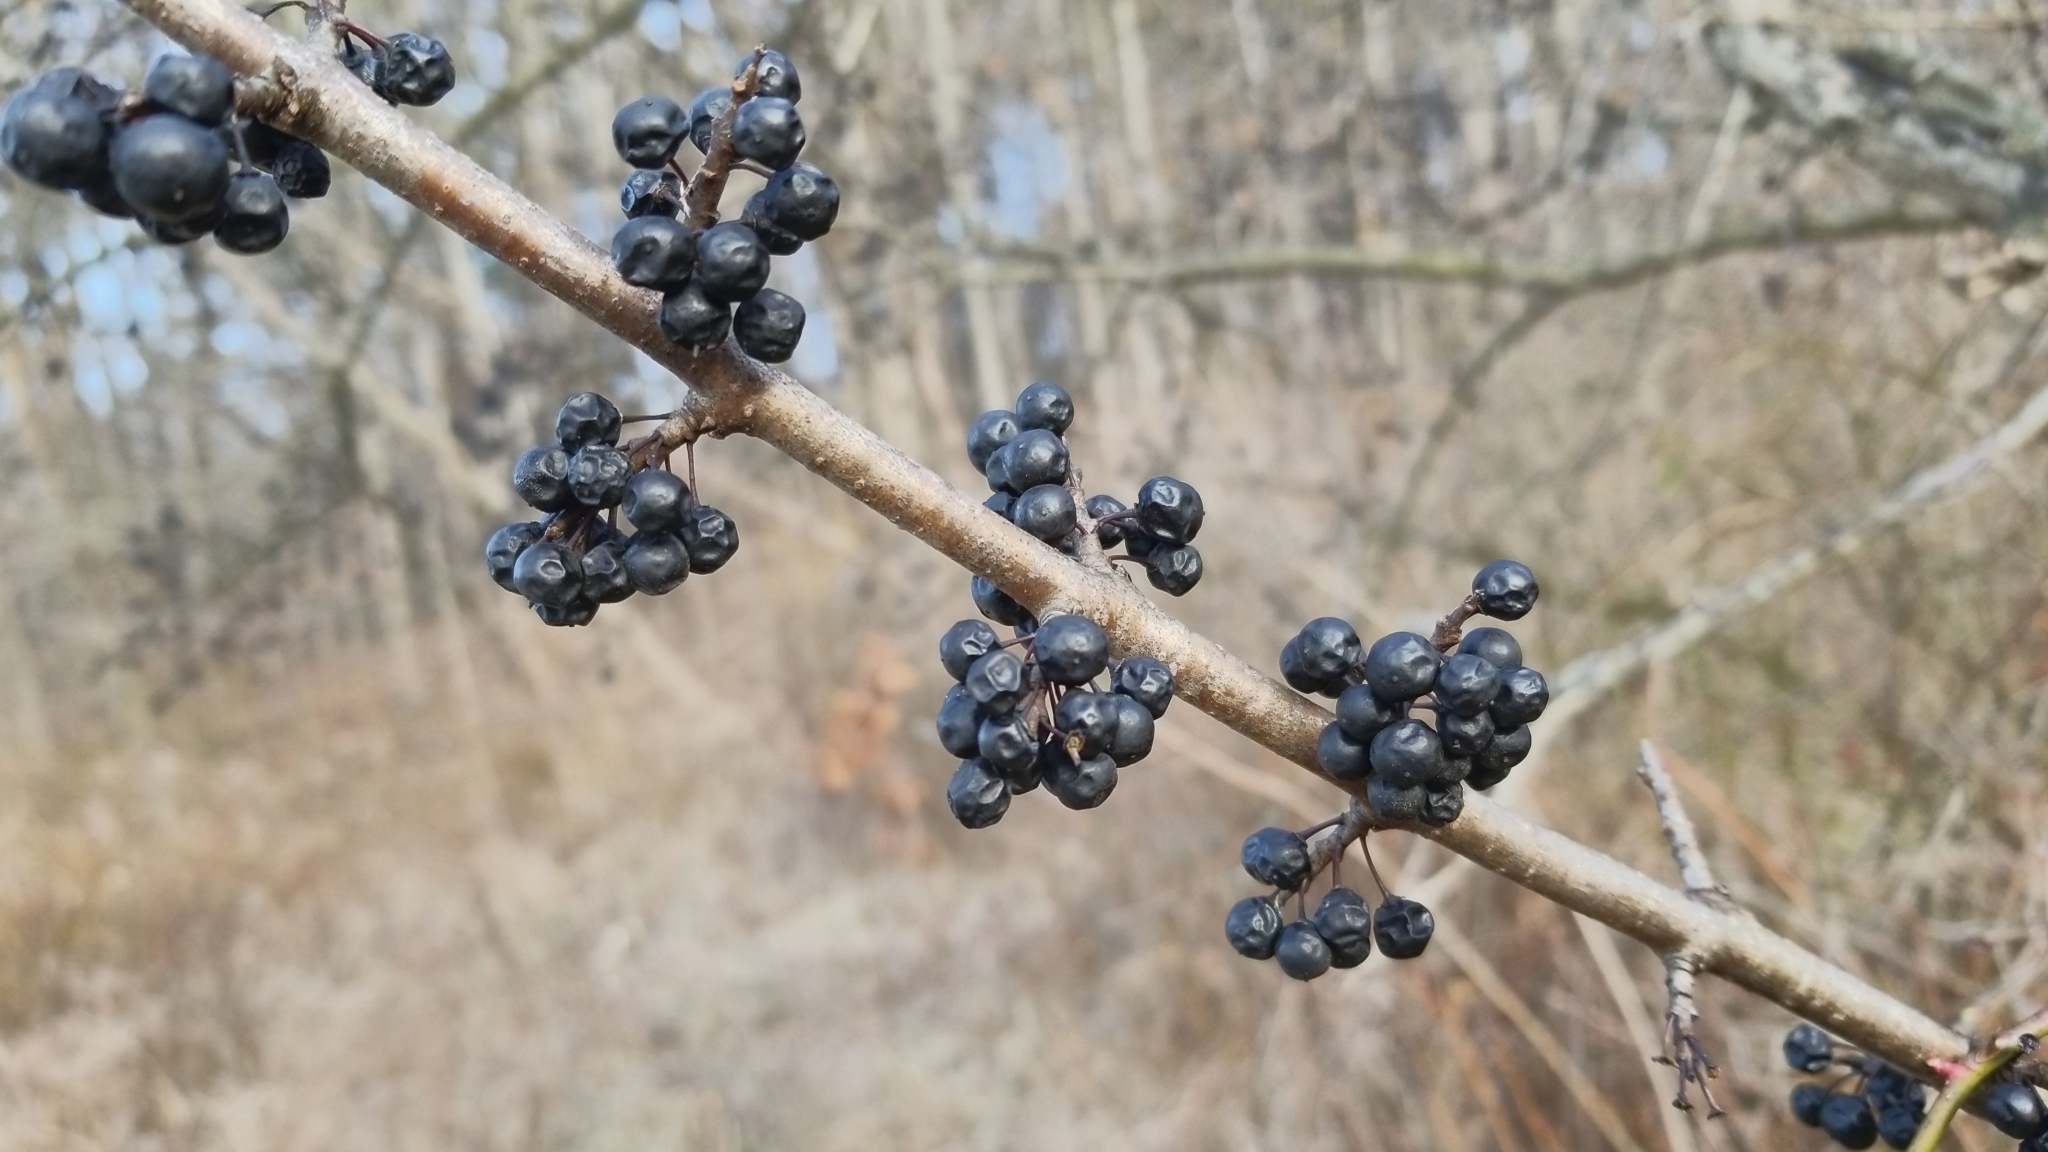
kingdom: Plantae
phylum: Tracheophyta
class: Magnoliopsida
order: Rosales
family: Rhamnaceae
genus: Rhamnus
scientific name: Rhamnus cathartica
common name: Common buckthorn
